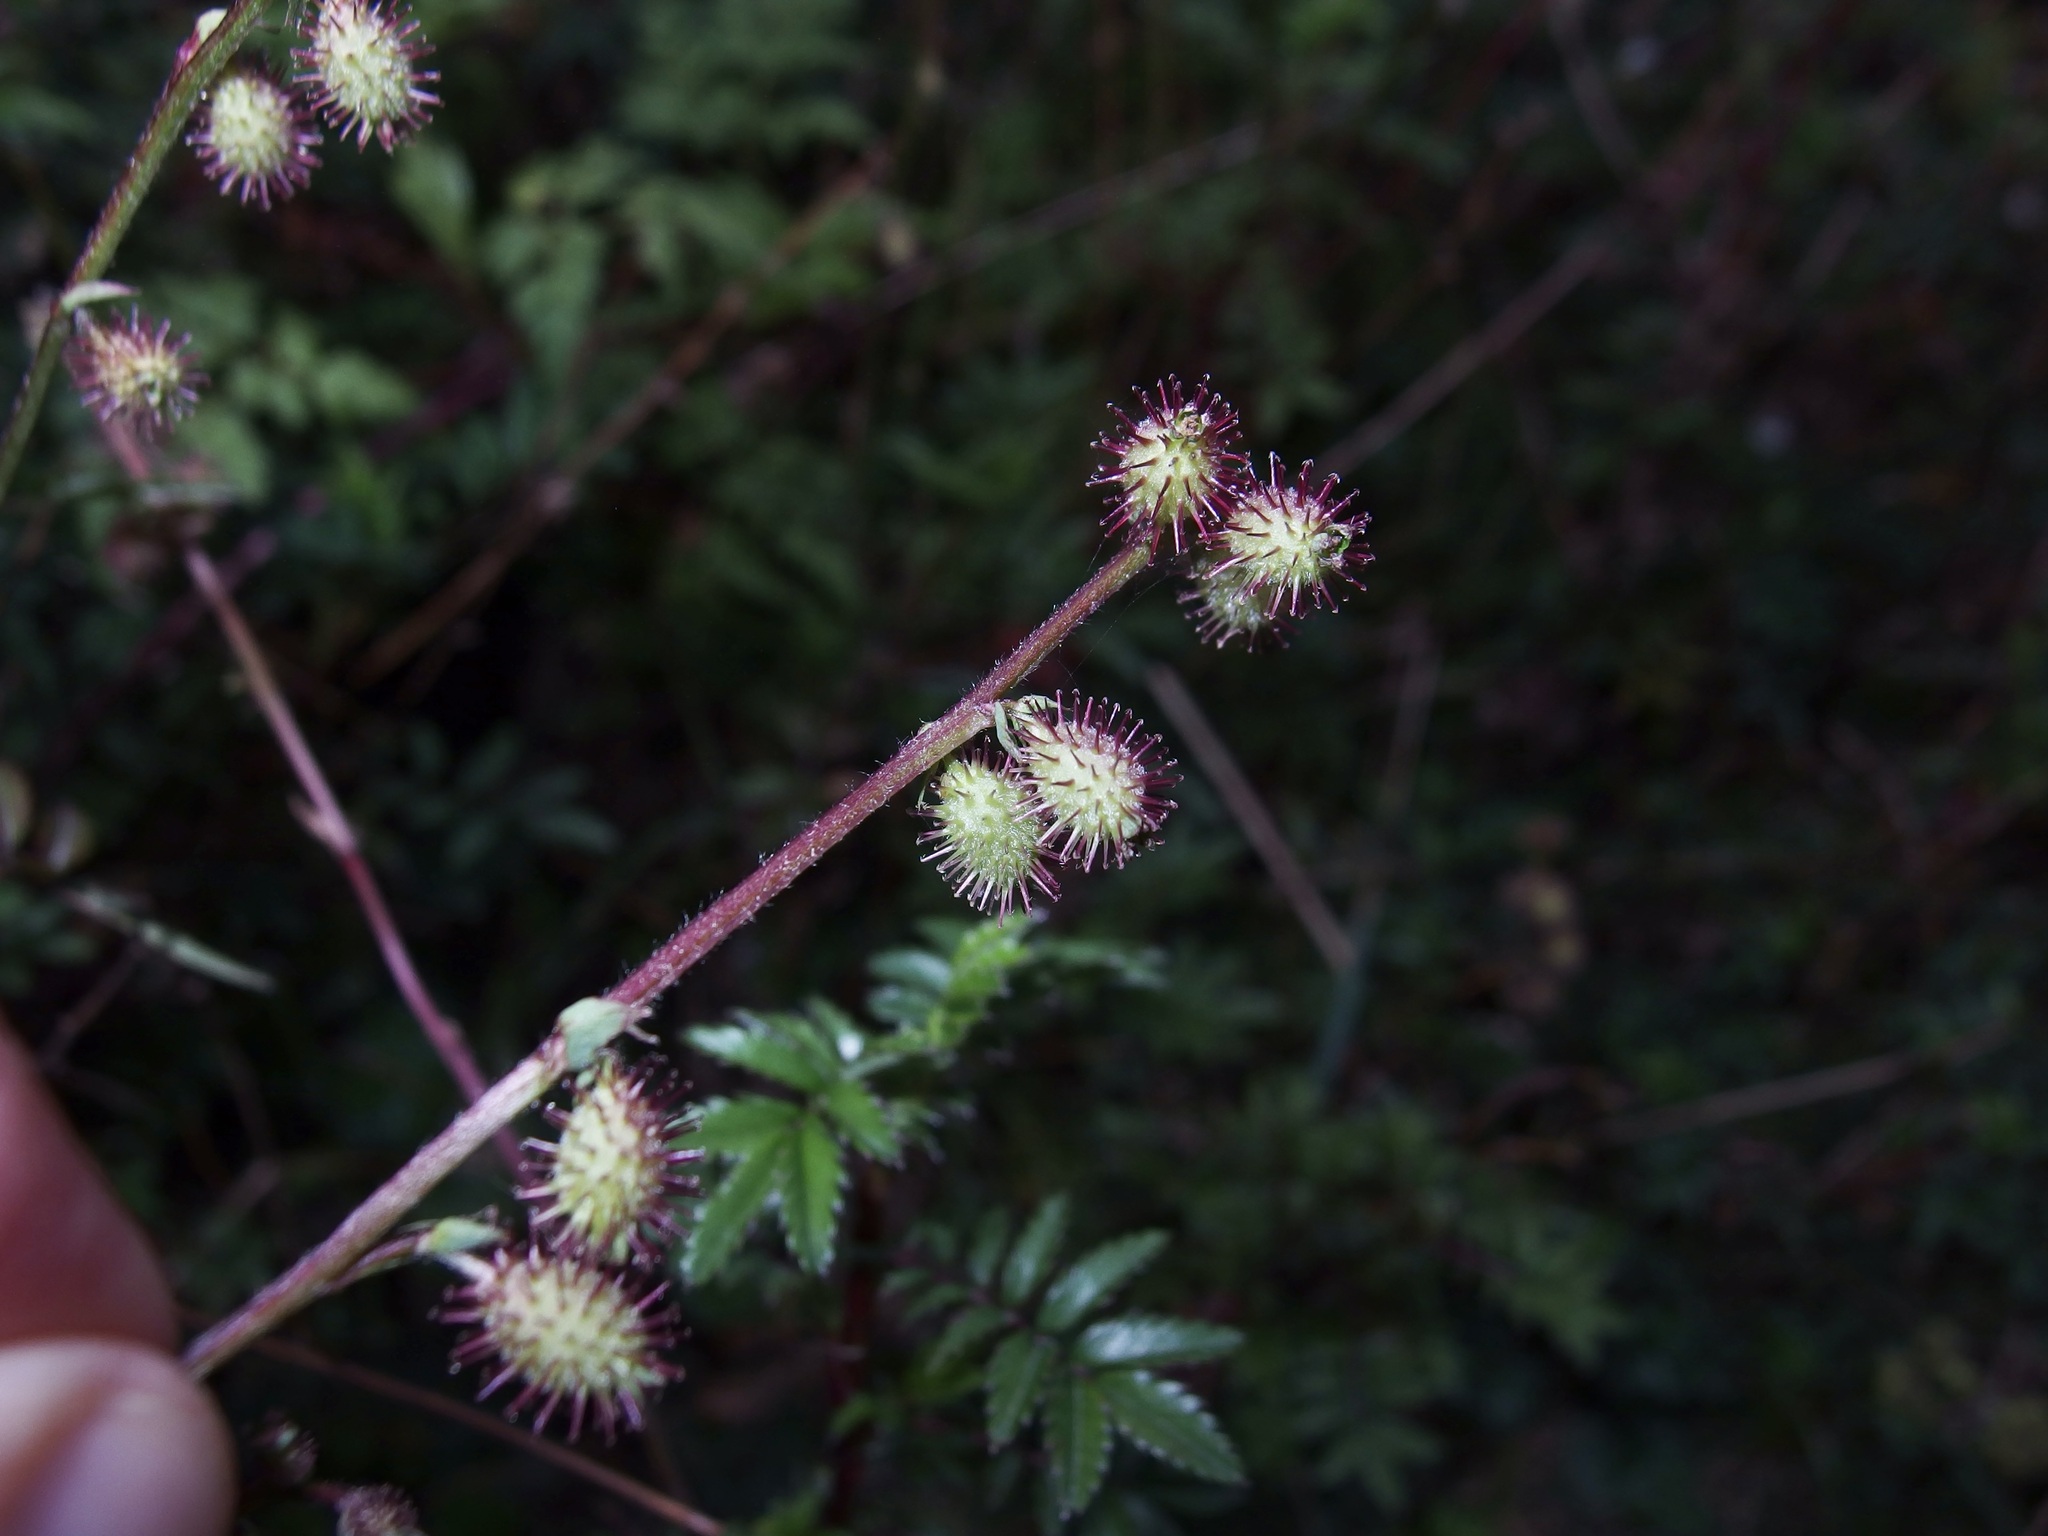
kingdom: Plantae
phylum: Tracheophyta
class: Magnoliopsida
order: Rosales
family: Rosaceae
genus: Acaena
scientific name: Acaena elongata
